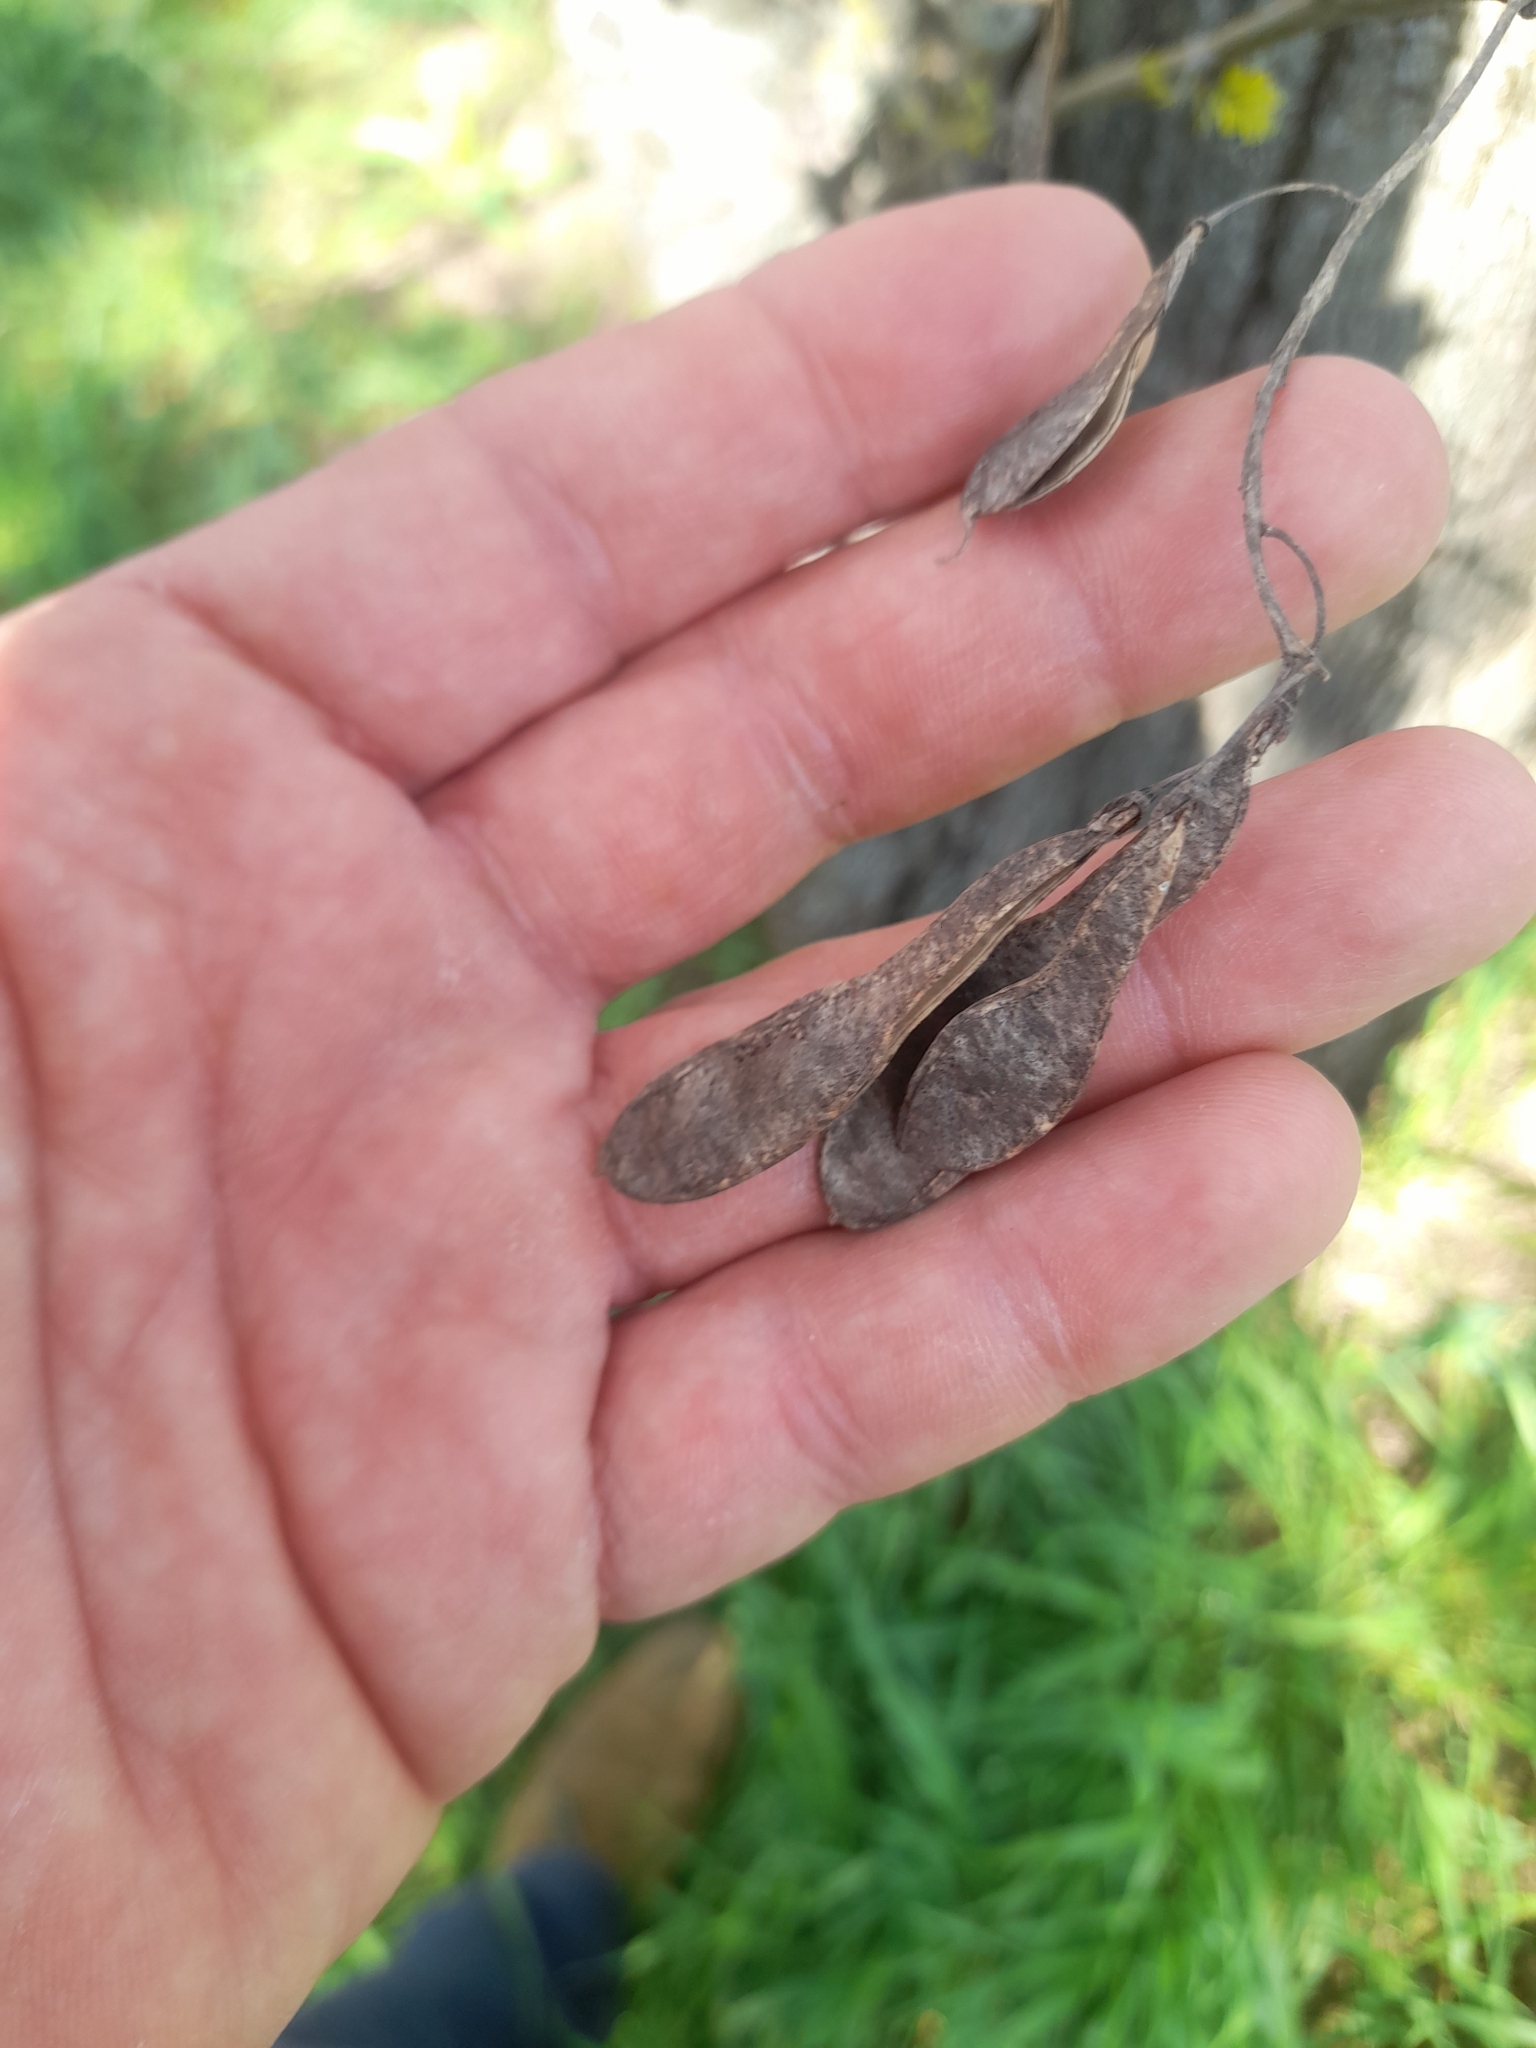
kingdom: Plantae
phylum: Tracheophyta
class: Magnoliopsida
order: Fabales
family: Fabaceae
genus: Robinia
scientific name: Robinia pseudoacacia
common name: Black locust
